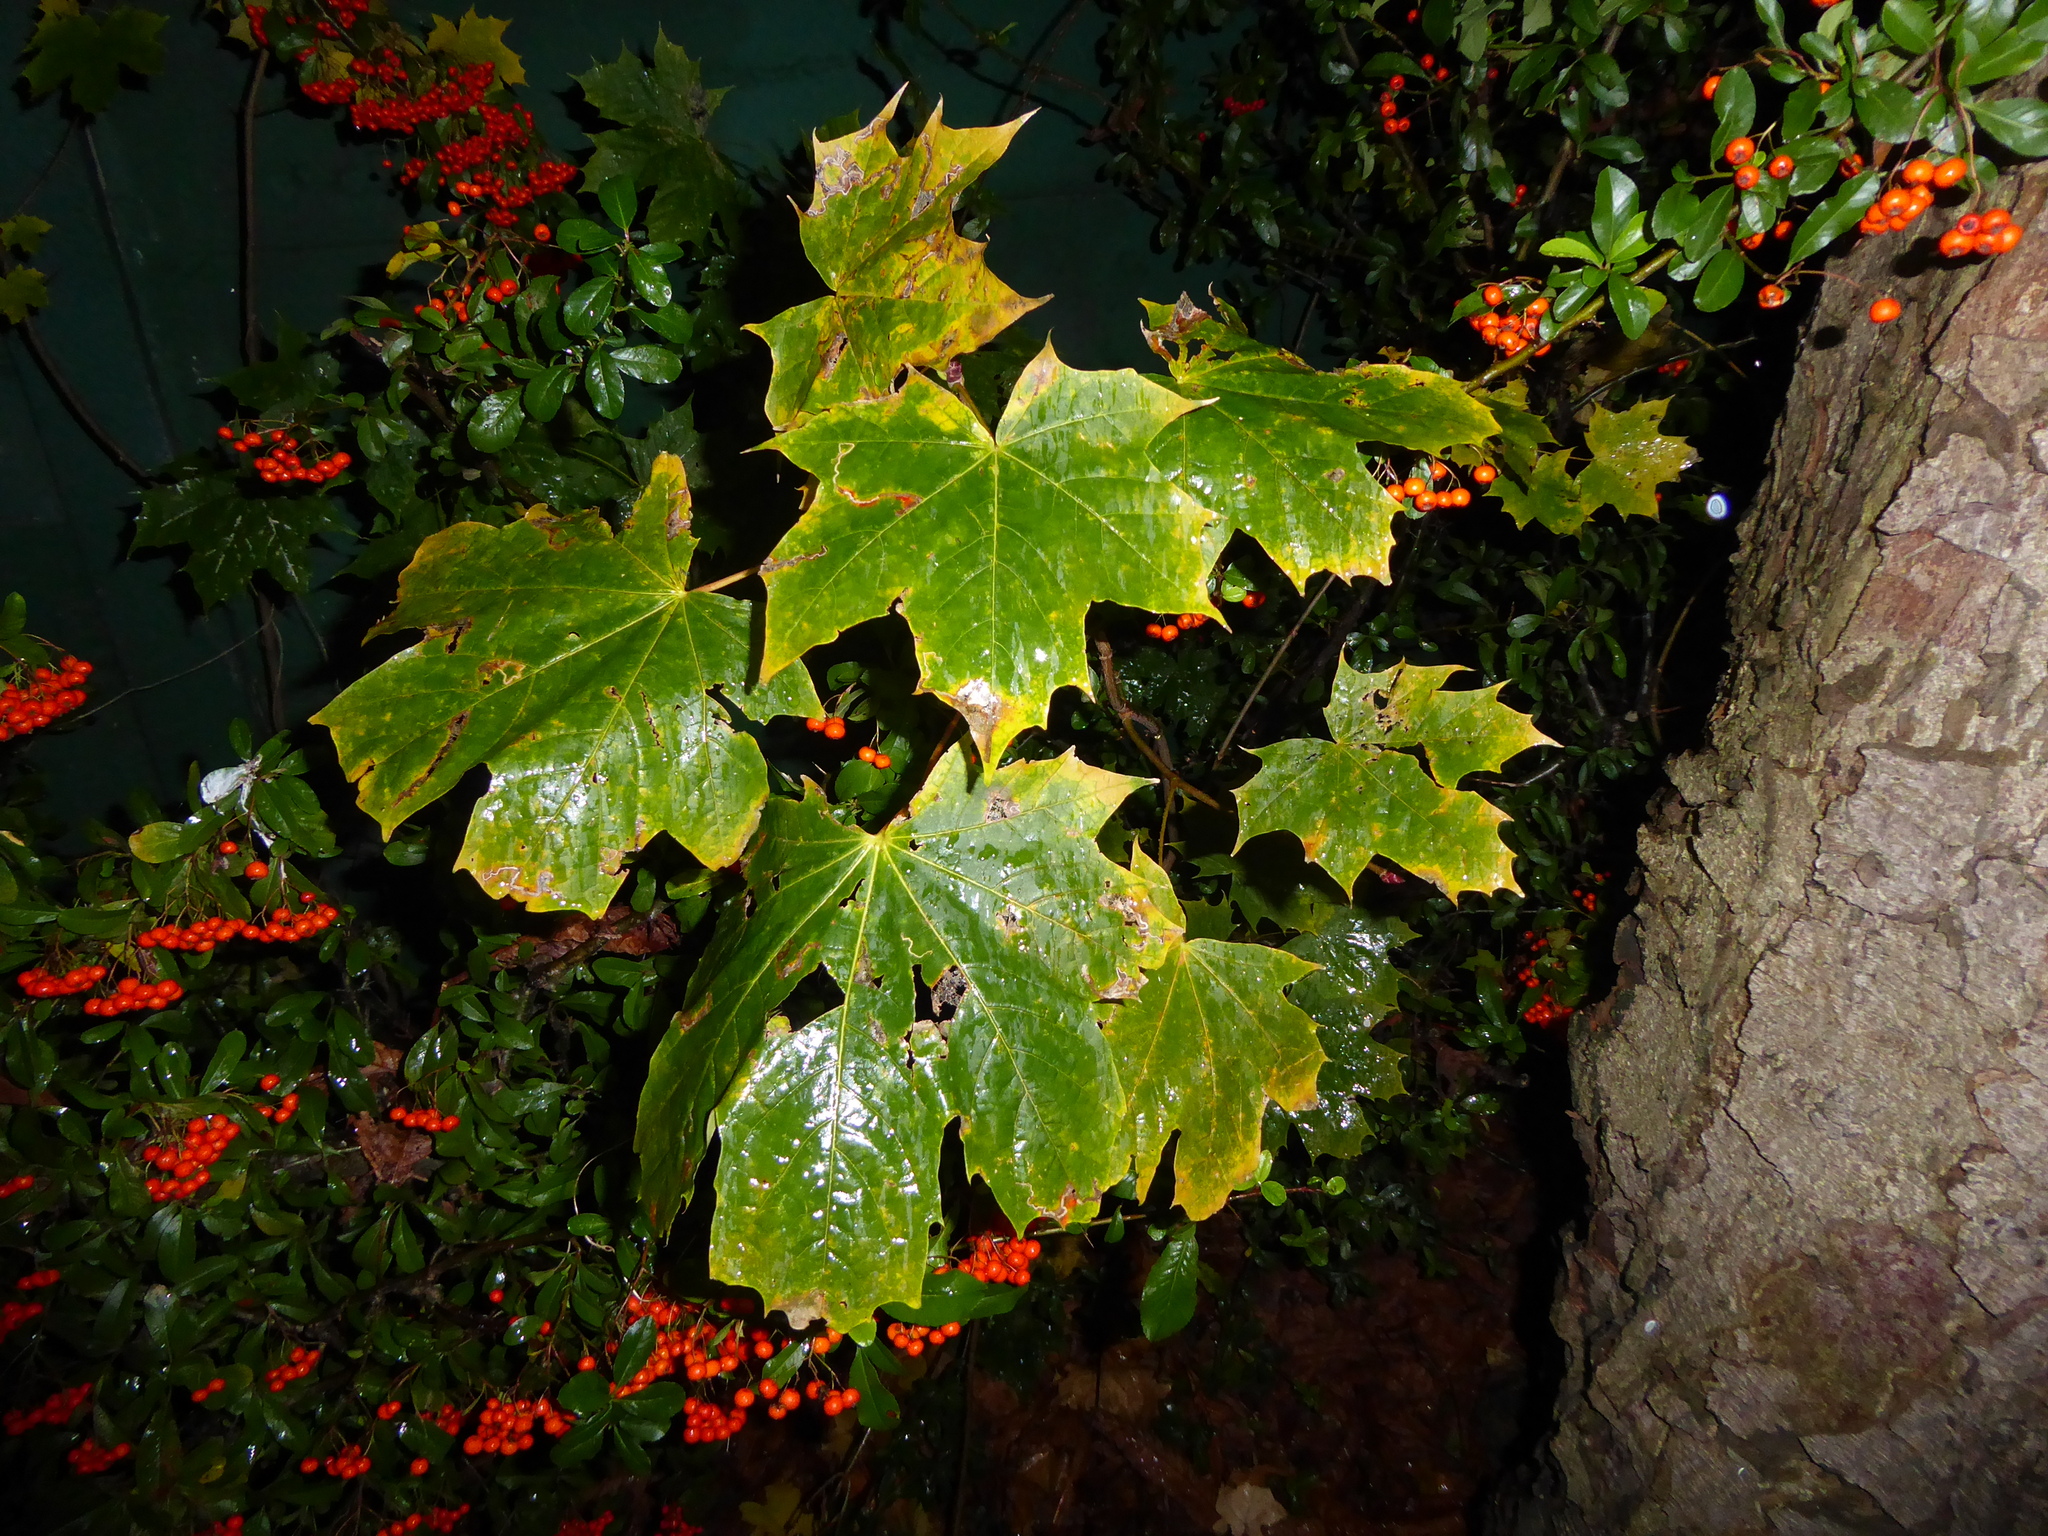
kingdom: Plantae
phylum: Tracheophyta
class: Magnoliopsida
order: Sapindales
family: Sapindaceae
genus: Acer
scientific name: Acer platanoides
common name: Norway maple
